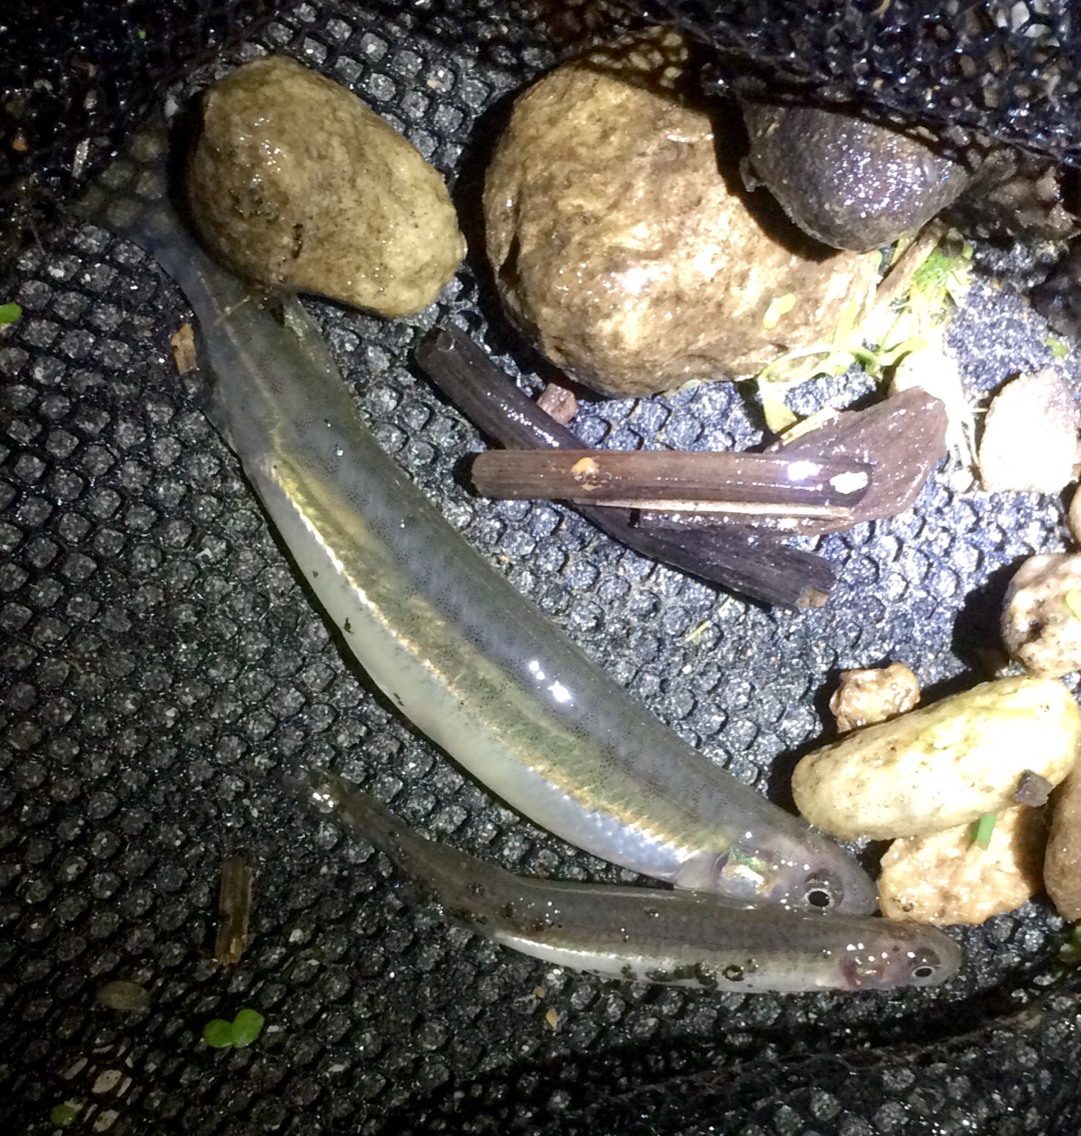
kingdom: Animalia
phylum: Chordata
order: Osmeriformes
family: Galaxiidae
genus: Galaxias
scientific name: Galaxias maculatus
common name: Common galaxias
